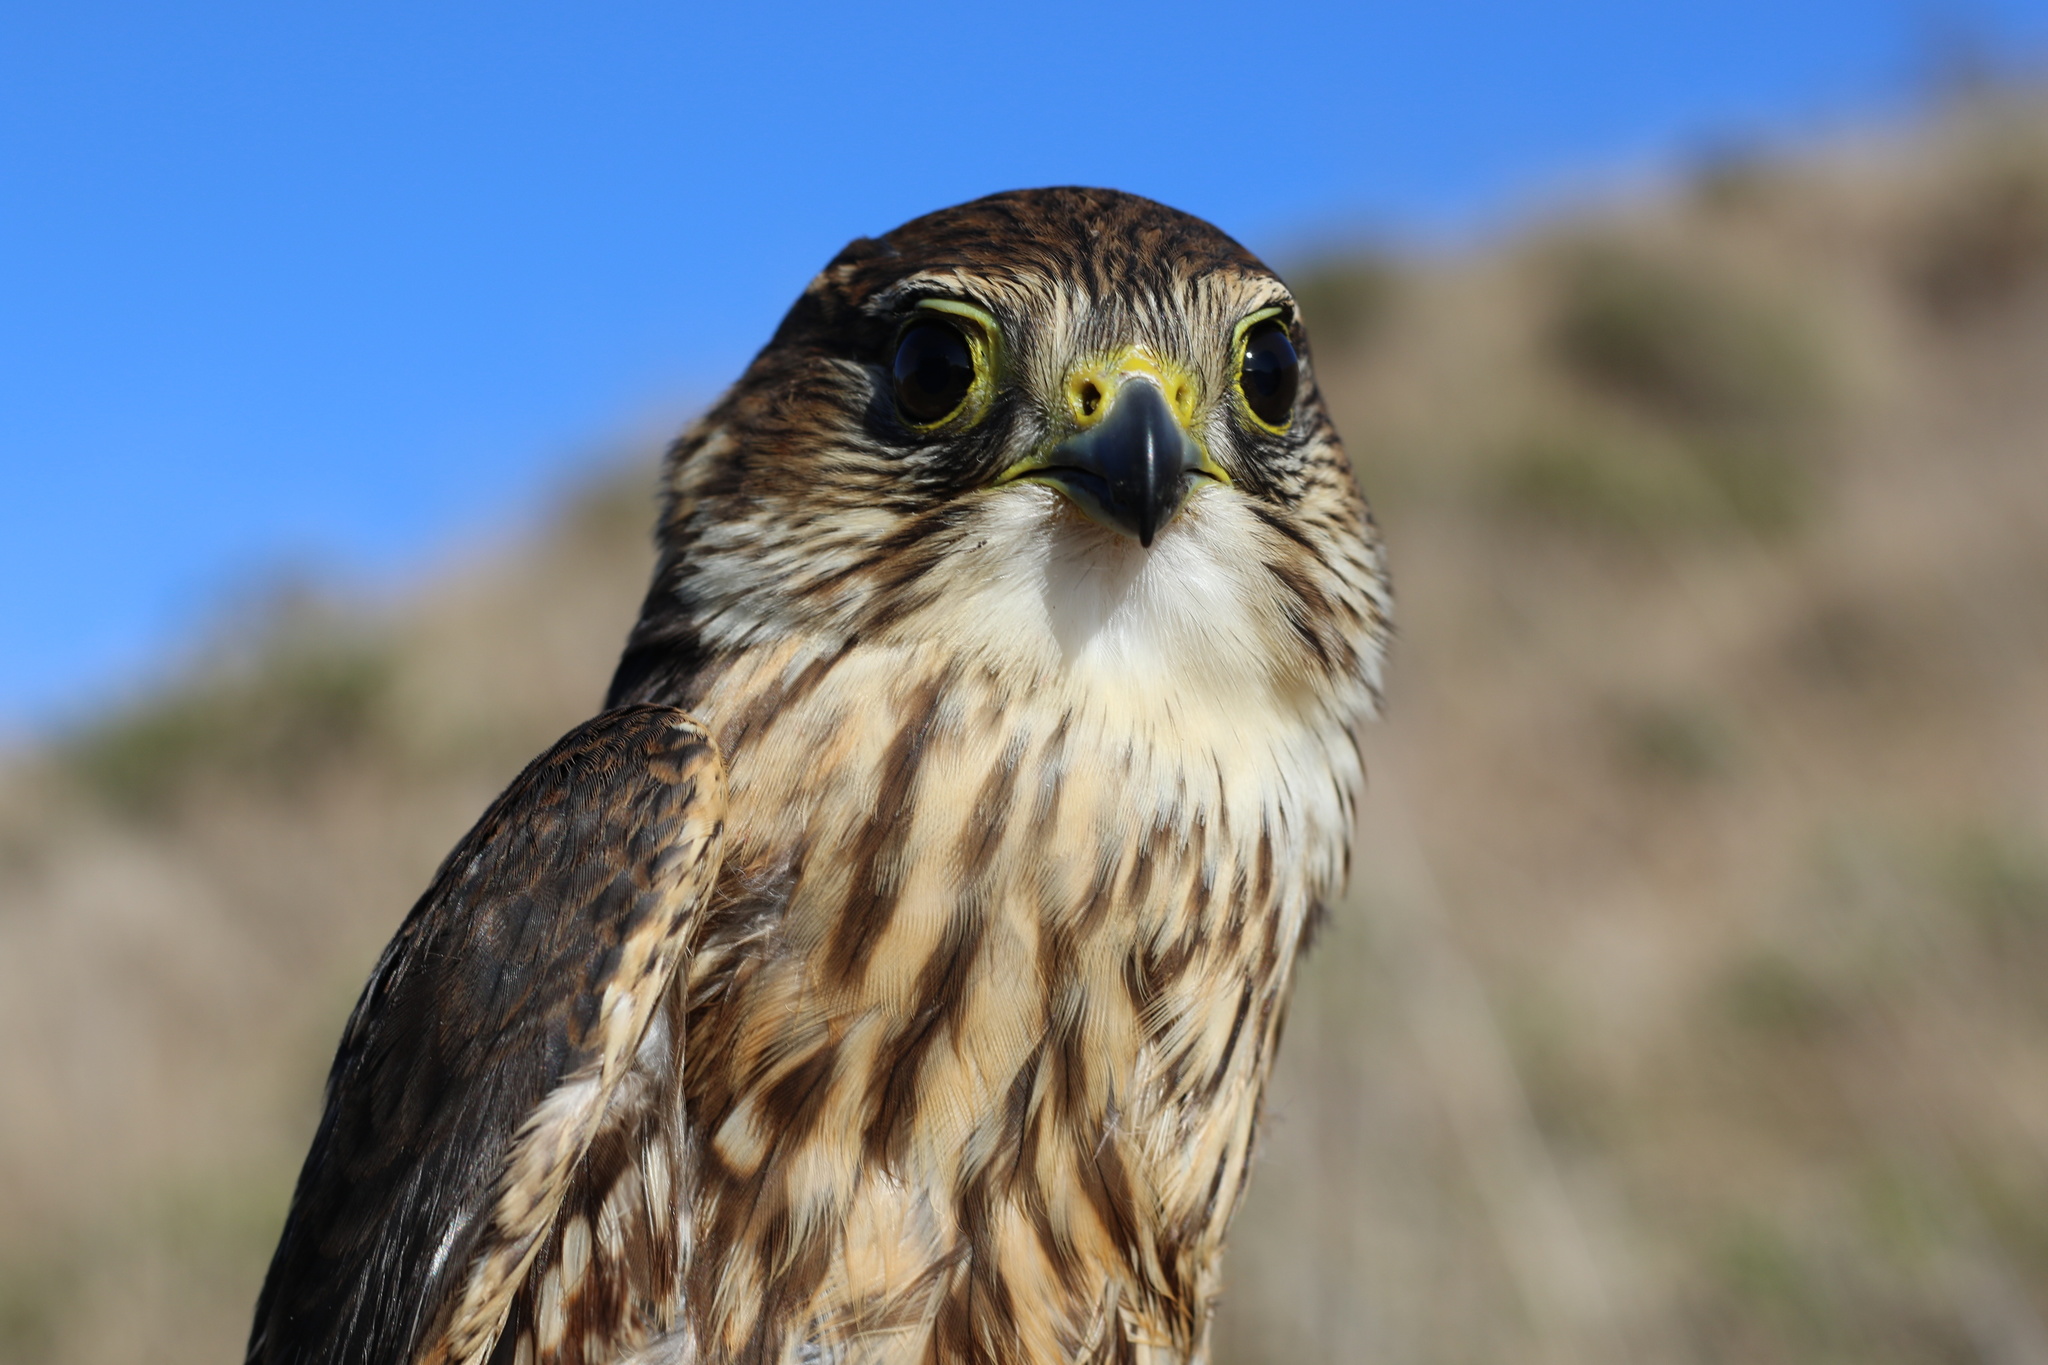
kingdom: Animalia
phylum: Chordata
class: Aves
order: Falconiformes
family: Falconidae
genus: Falco
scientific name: Falco columbarius
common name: Merlin
